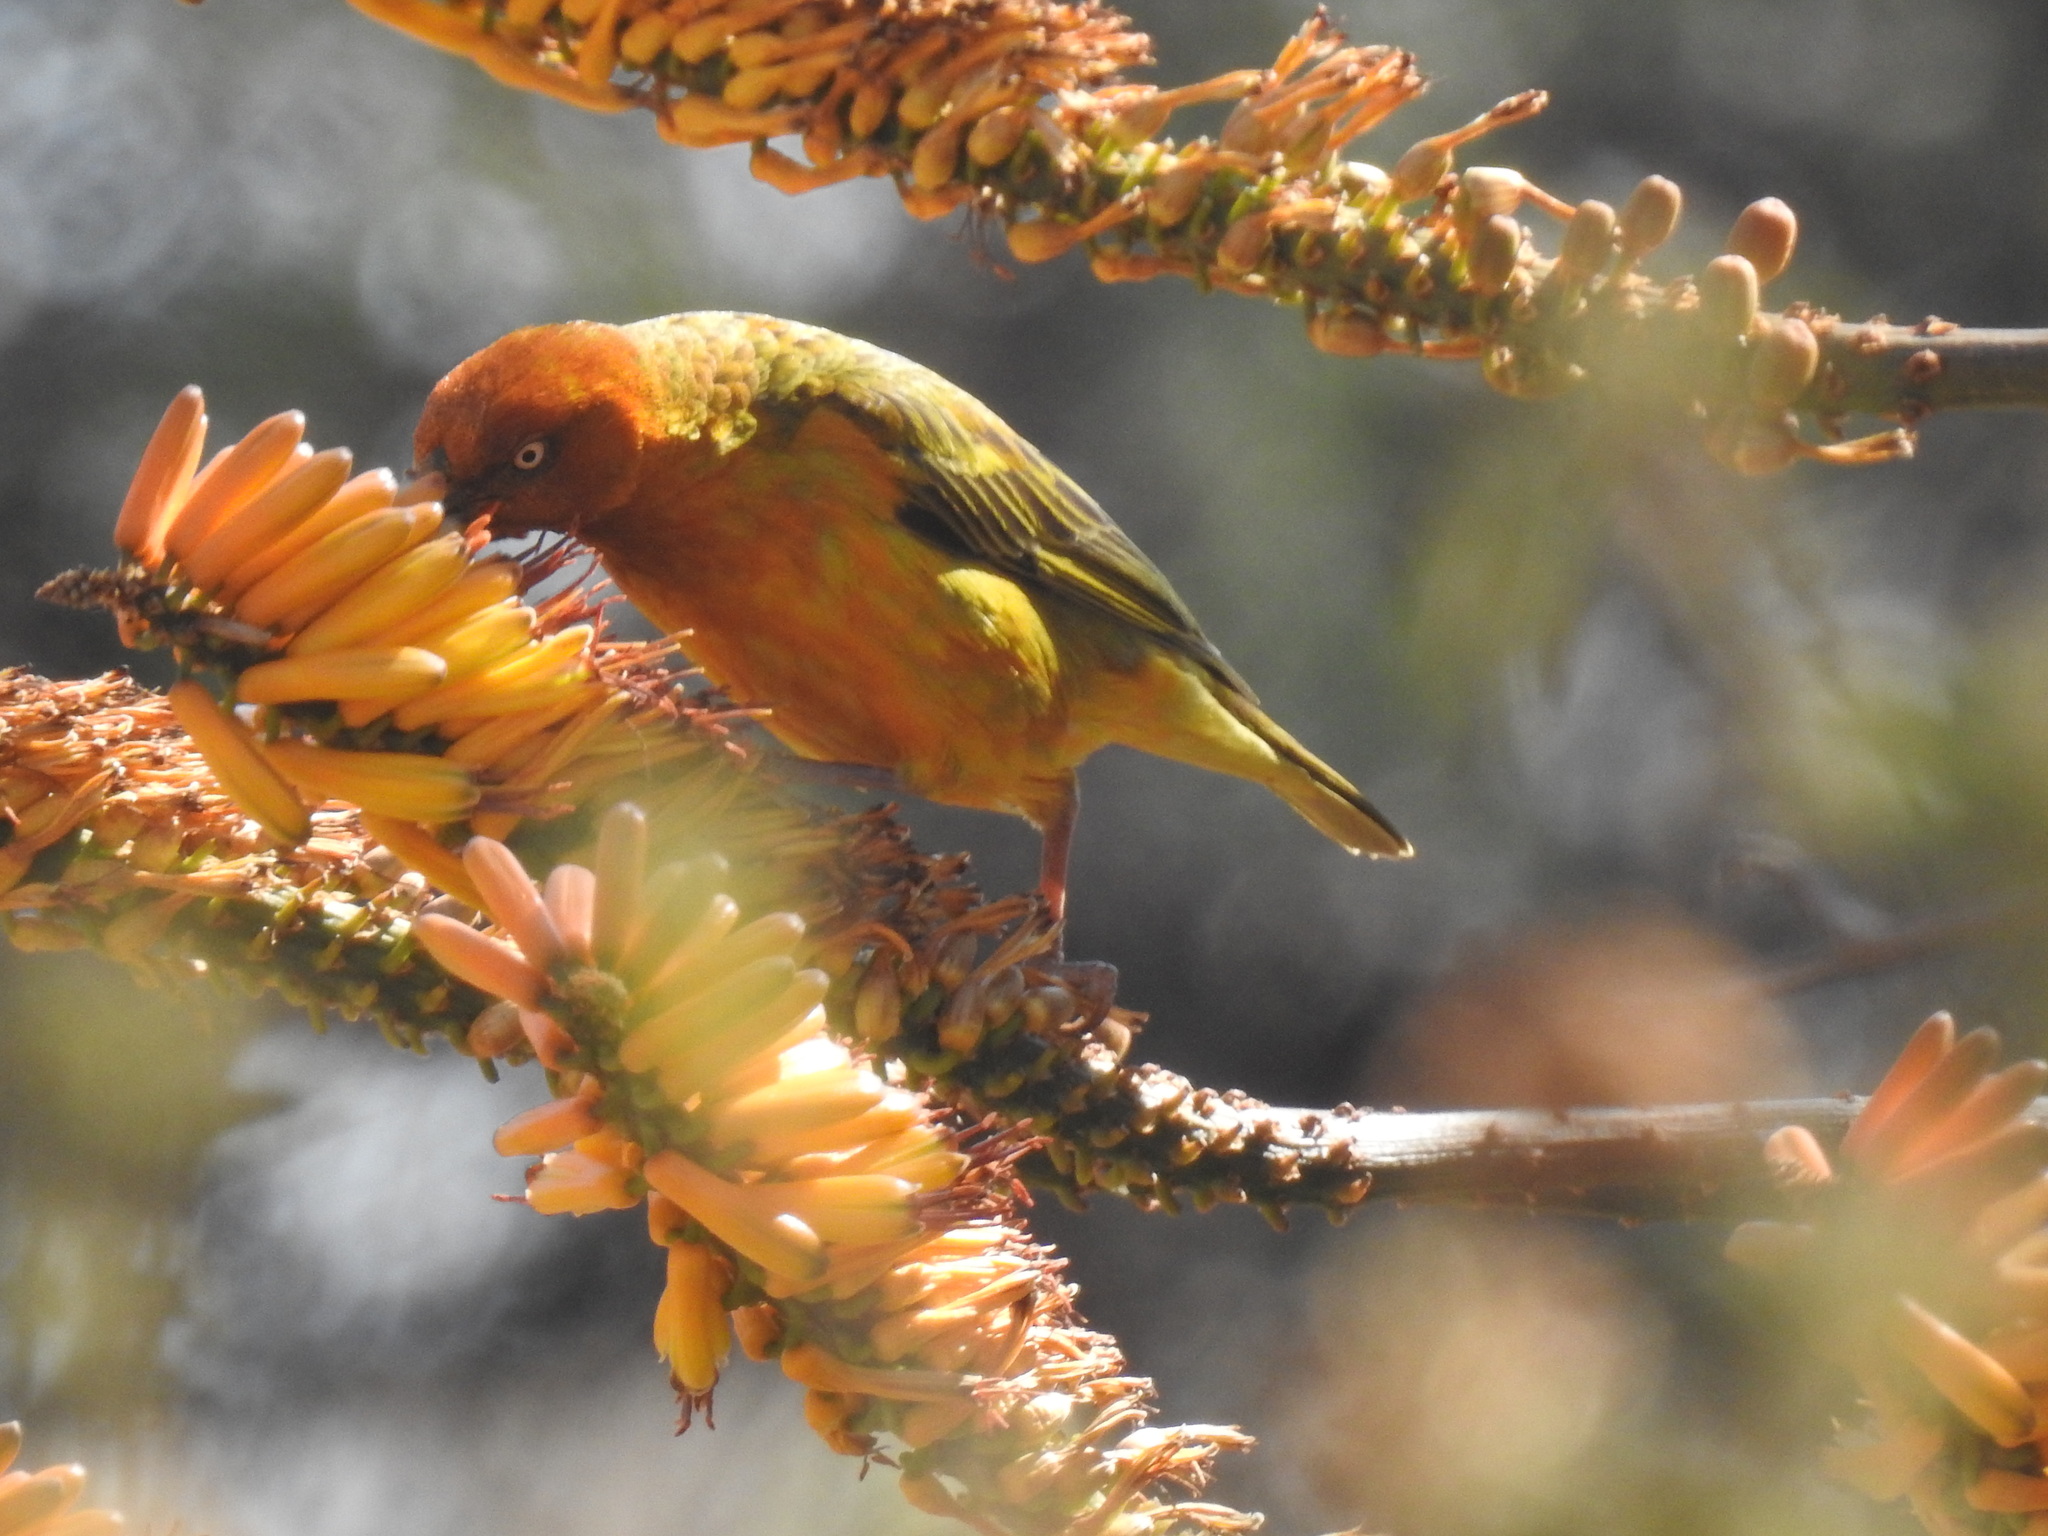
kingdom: Animalia
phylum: Chordata
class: Aves
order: Passeriformes
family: Ploceidae
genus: Ploceus
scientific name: Ploceus capensis
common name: Cape weaver
